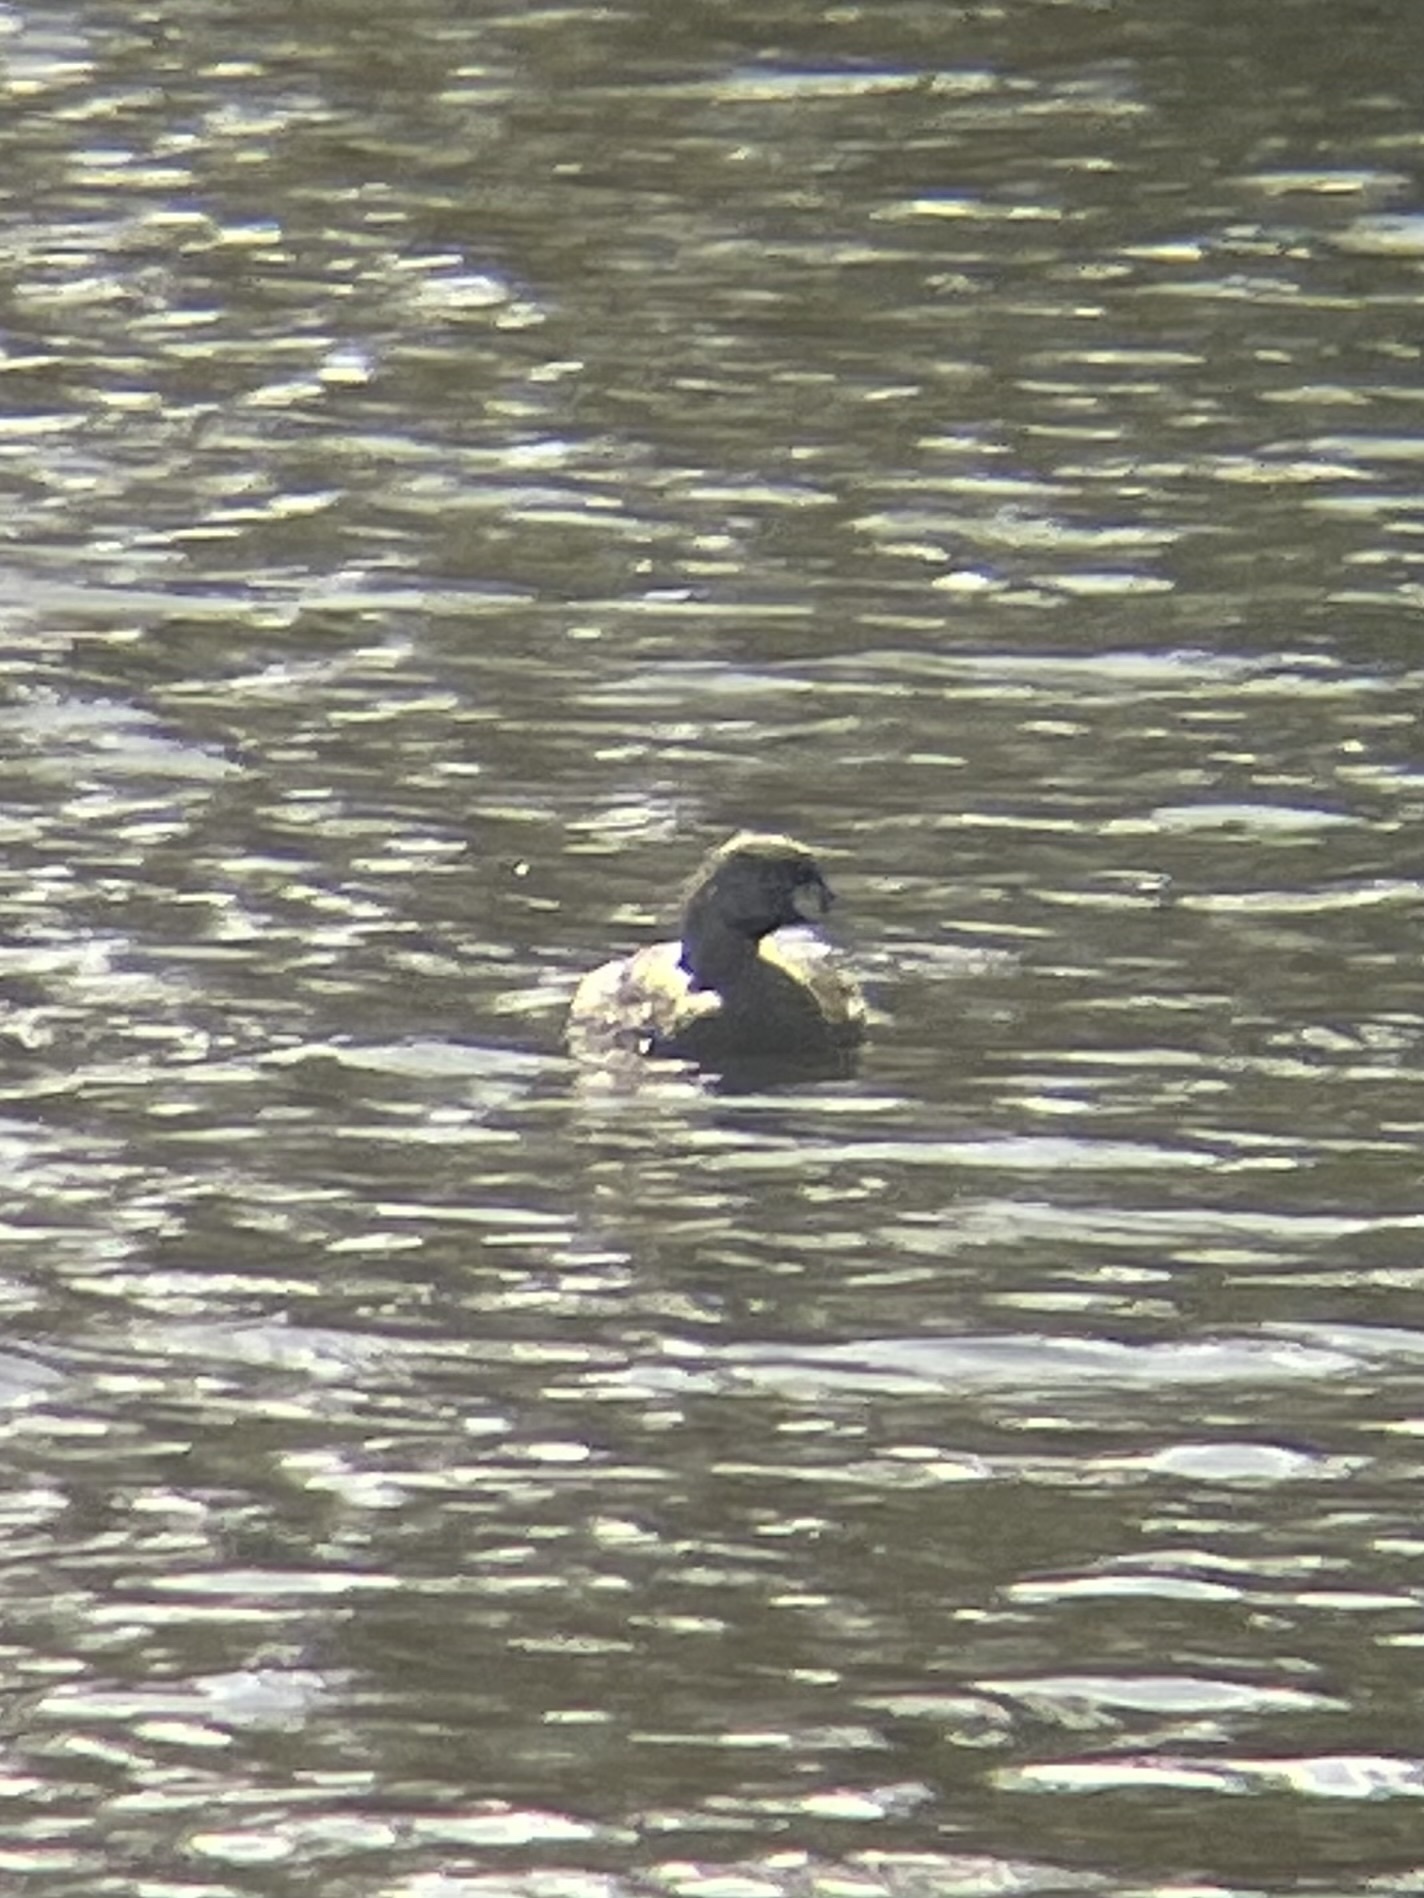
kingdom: Animalia
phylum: Chordata
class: Aves
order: Podicipediformes
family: Podicipedidae
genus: Podilymbus
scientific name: Podilymbus podiceps
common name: Pied-billed grebe
